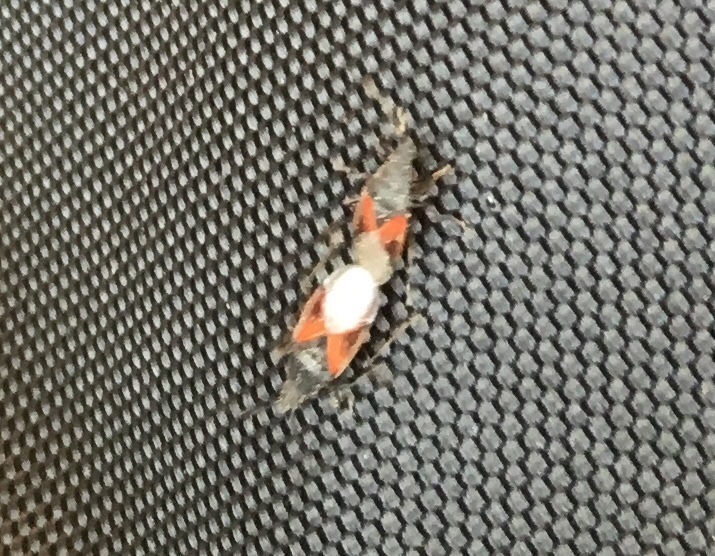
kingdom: Animalia
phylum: Arthropoda
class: Insecta
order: Hemiptera
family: Oxycarenidae
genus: Oxycarenus
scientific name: Oxycarenus lavaterae
